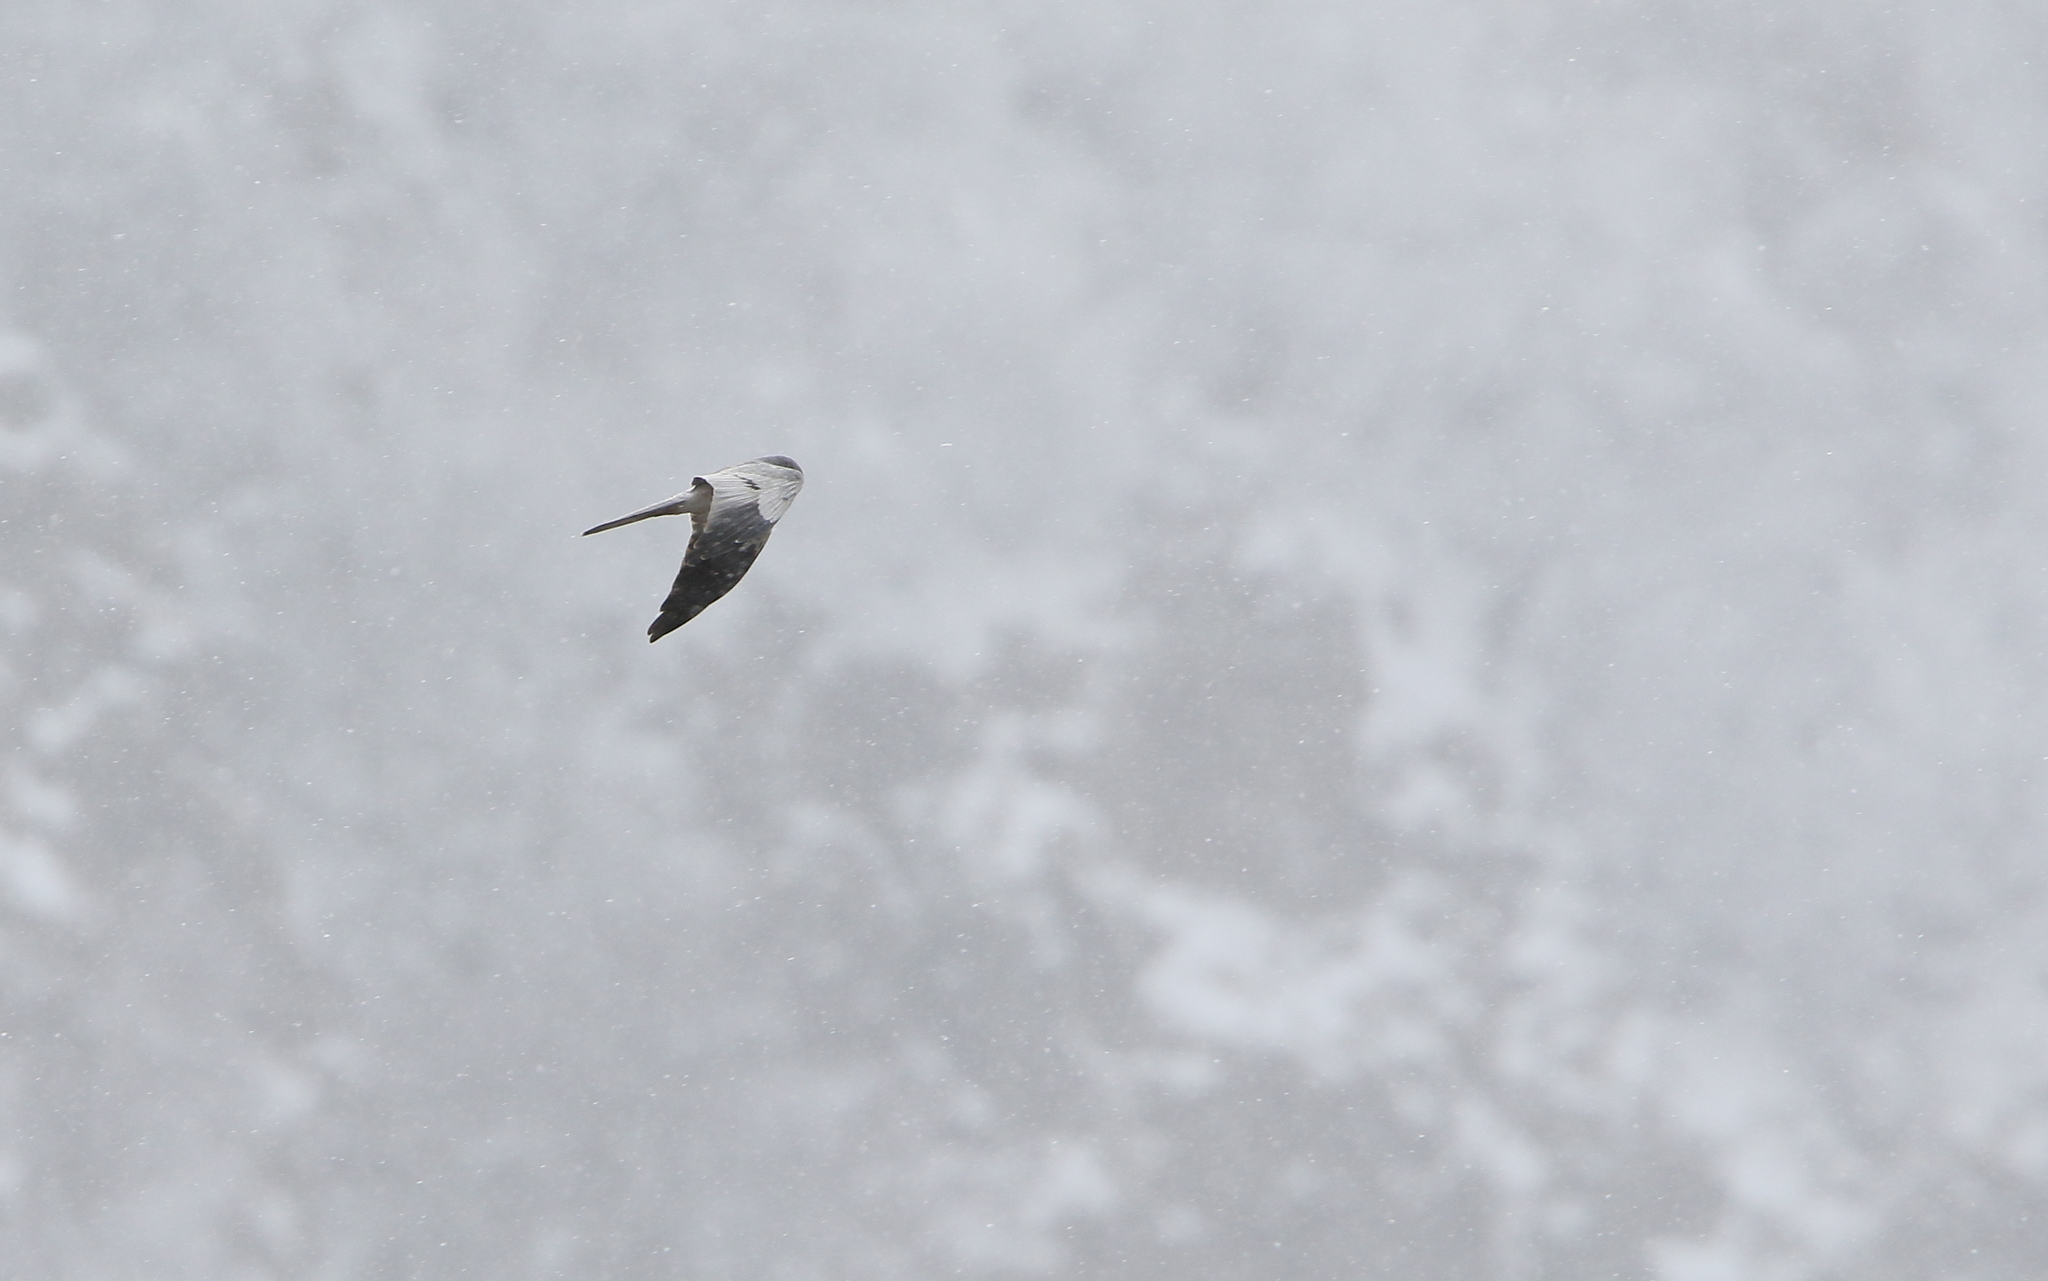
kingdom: Animalia
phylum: Chordata
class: Aves
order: Accipitriformes
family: Accipitridae
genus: Circus
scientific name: Circus pygargus
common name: Montagu's harrier
